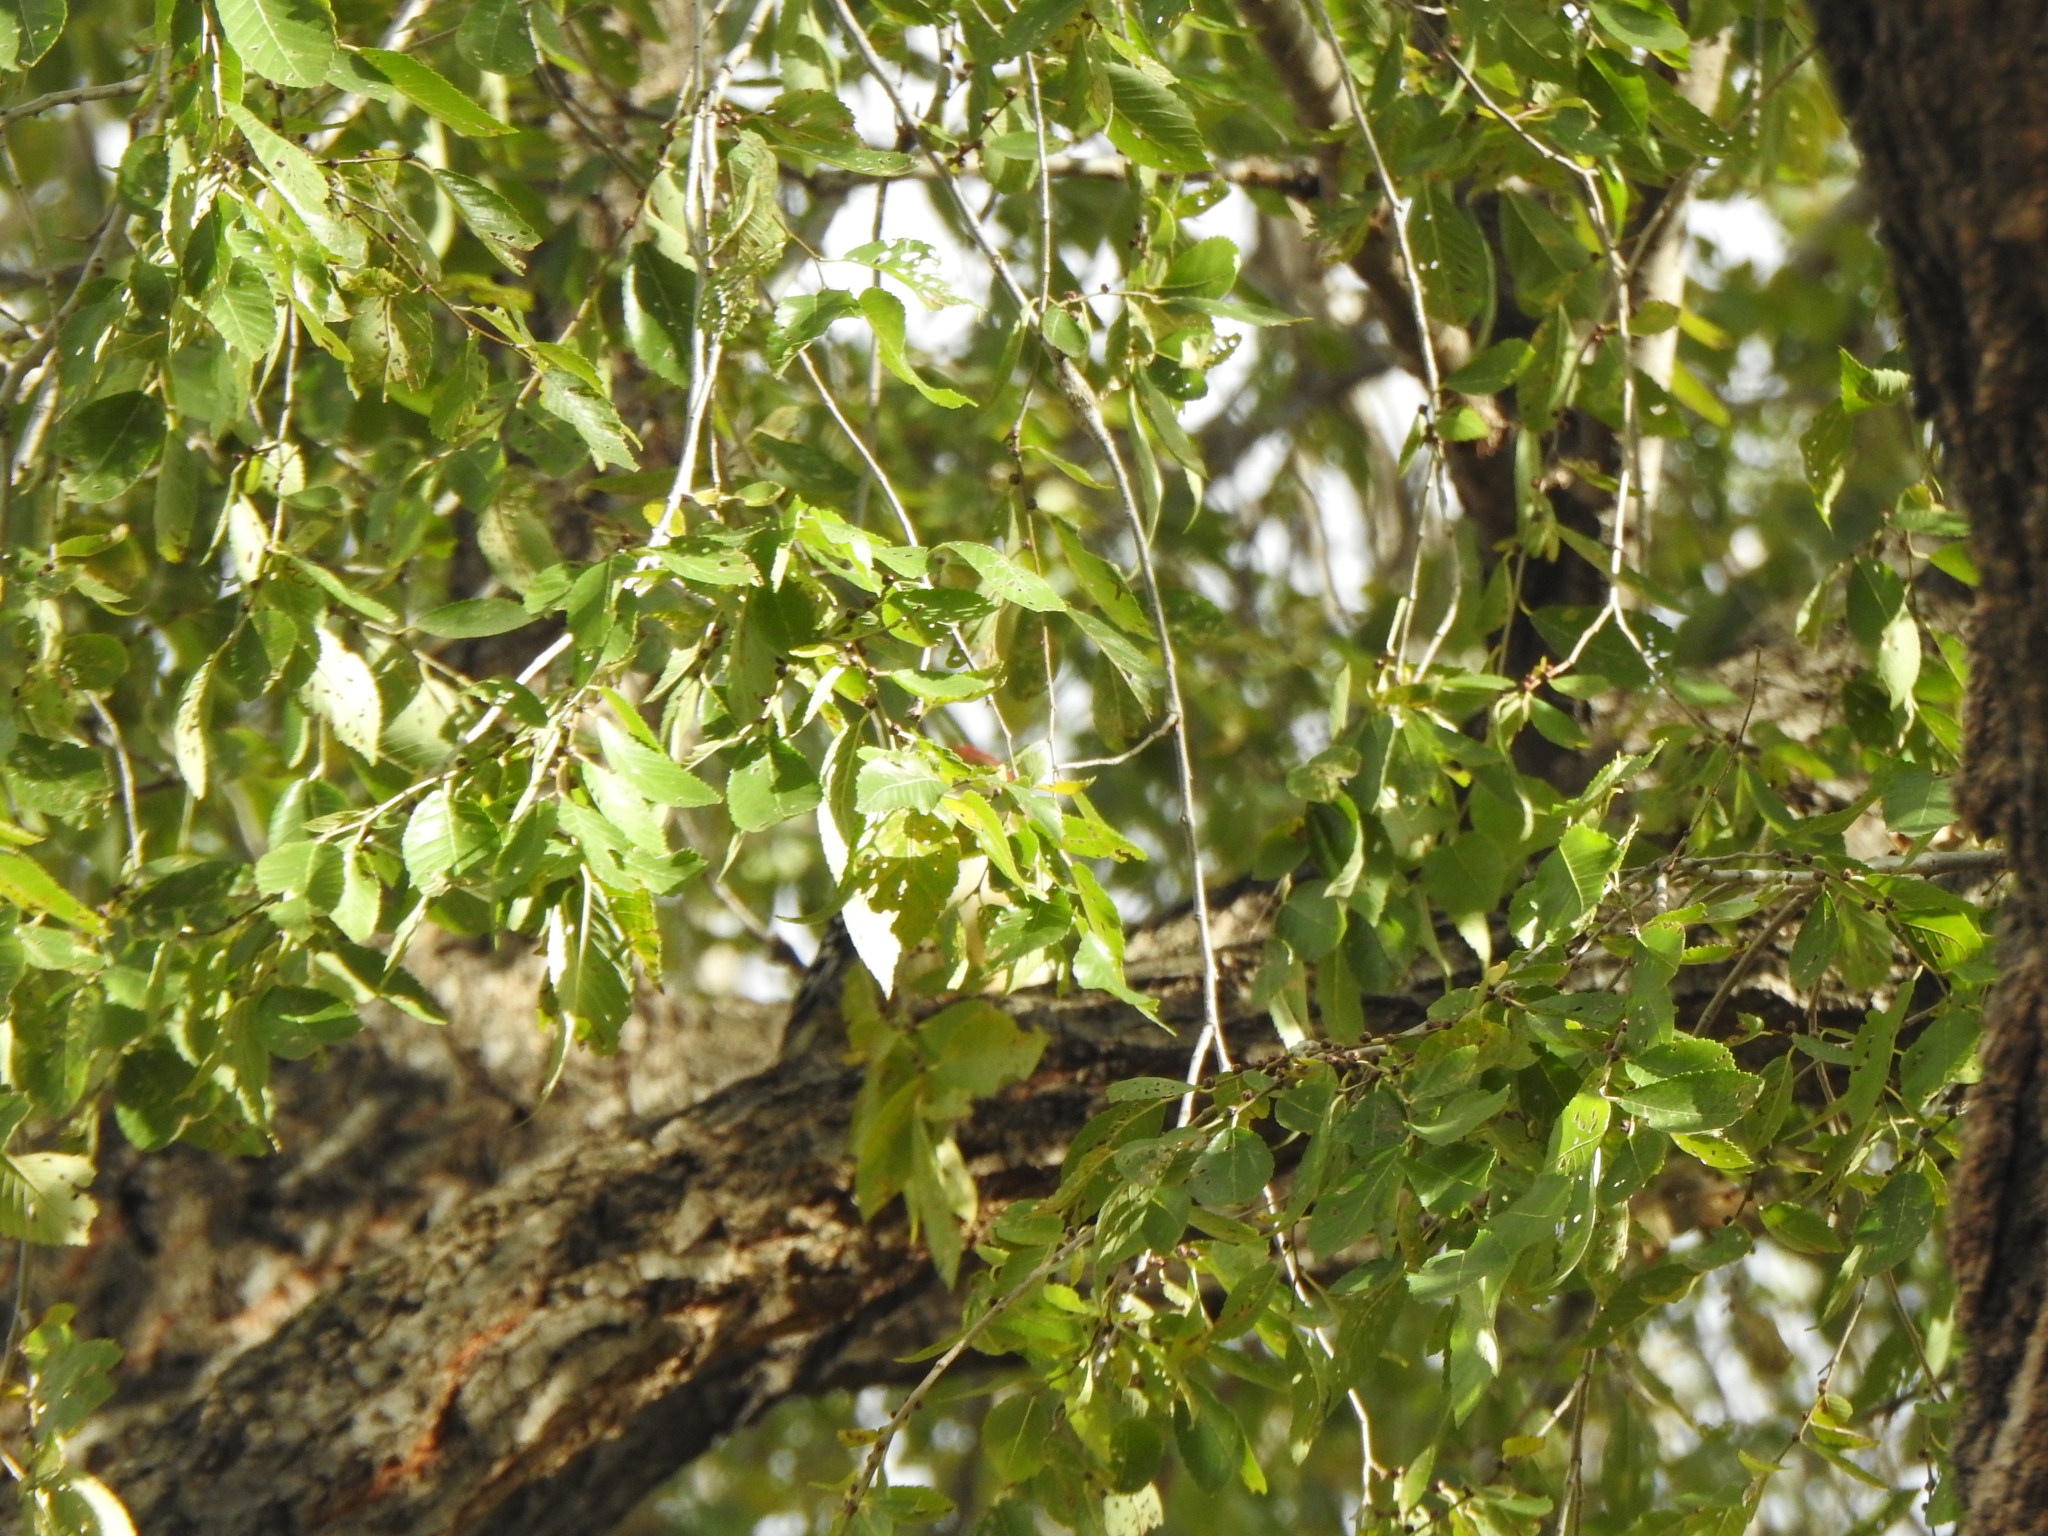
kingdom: Animalia
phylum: Chordata
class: Aves
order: Piciformes
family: Picidae
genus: Melanerpes
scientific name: Melanerpes carolinus
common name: Red-bellied woodpecker
